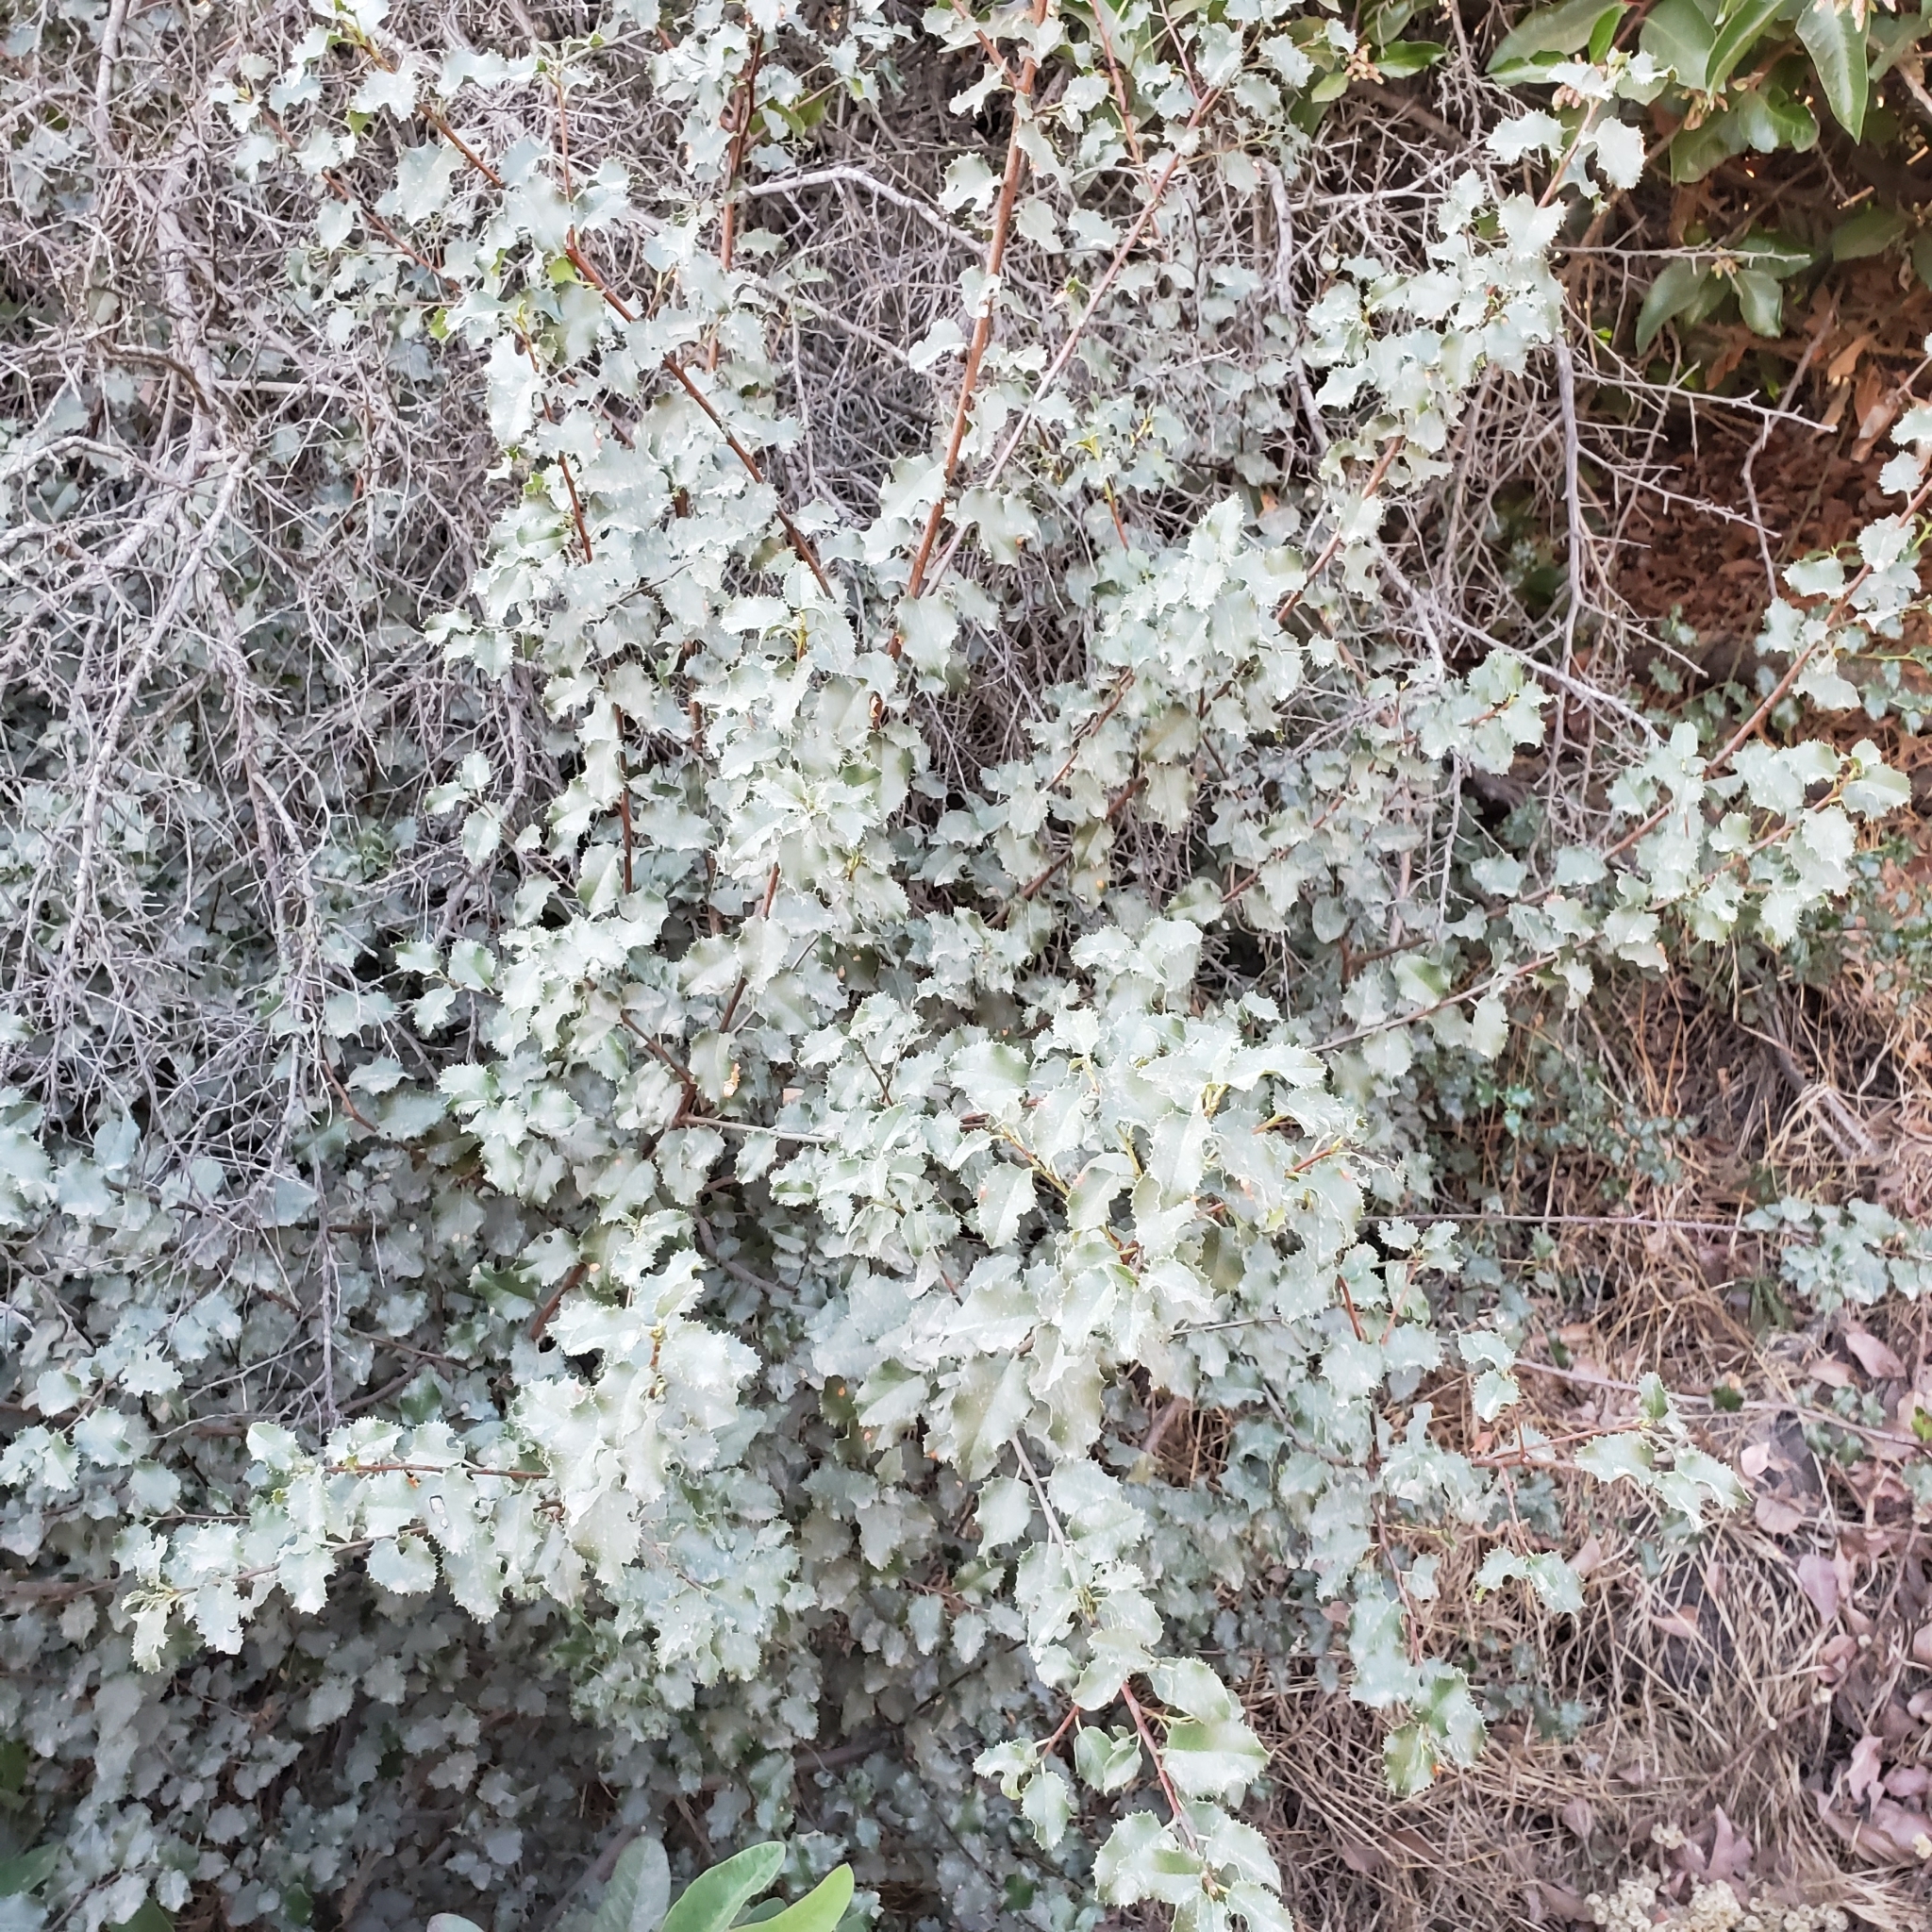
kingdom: Plantae
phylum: Tracheophyta
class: Magnoliopsida
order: Rosales
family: Rosaceae
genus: Prunus
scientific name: Prunus ilicifolia
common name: Hollyleaf cherry
